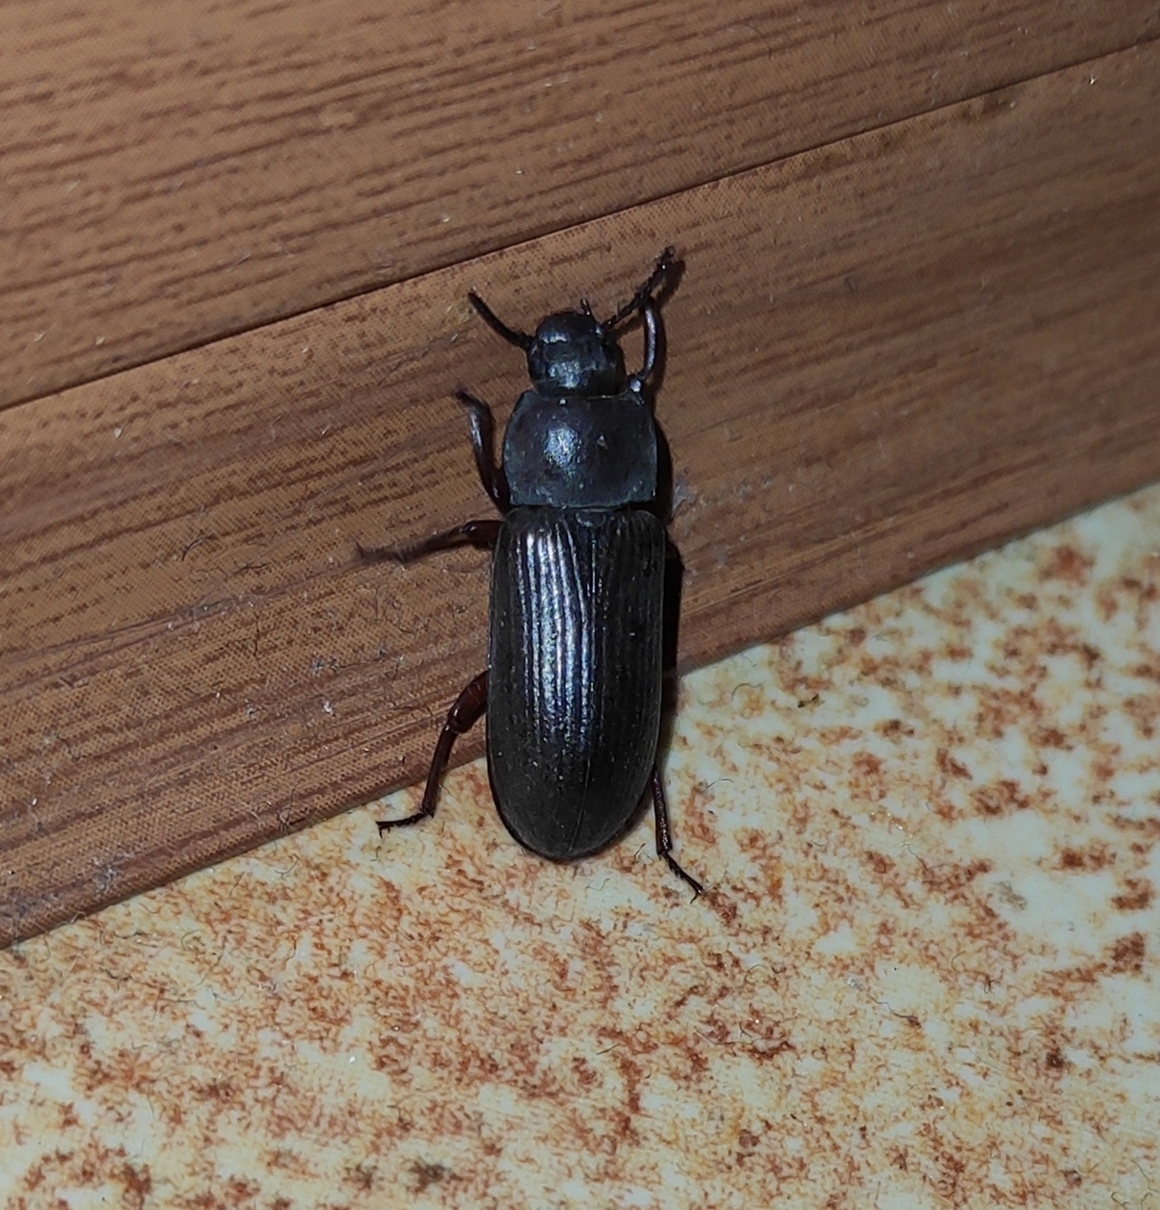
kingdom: Animalia
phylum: Arthropoda
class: Insecta
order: Coleoptera
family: Tenebrionidae
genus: Tenebrio
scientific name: Tenebrio molitor
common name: Hardback beetle
